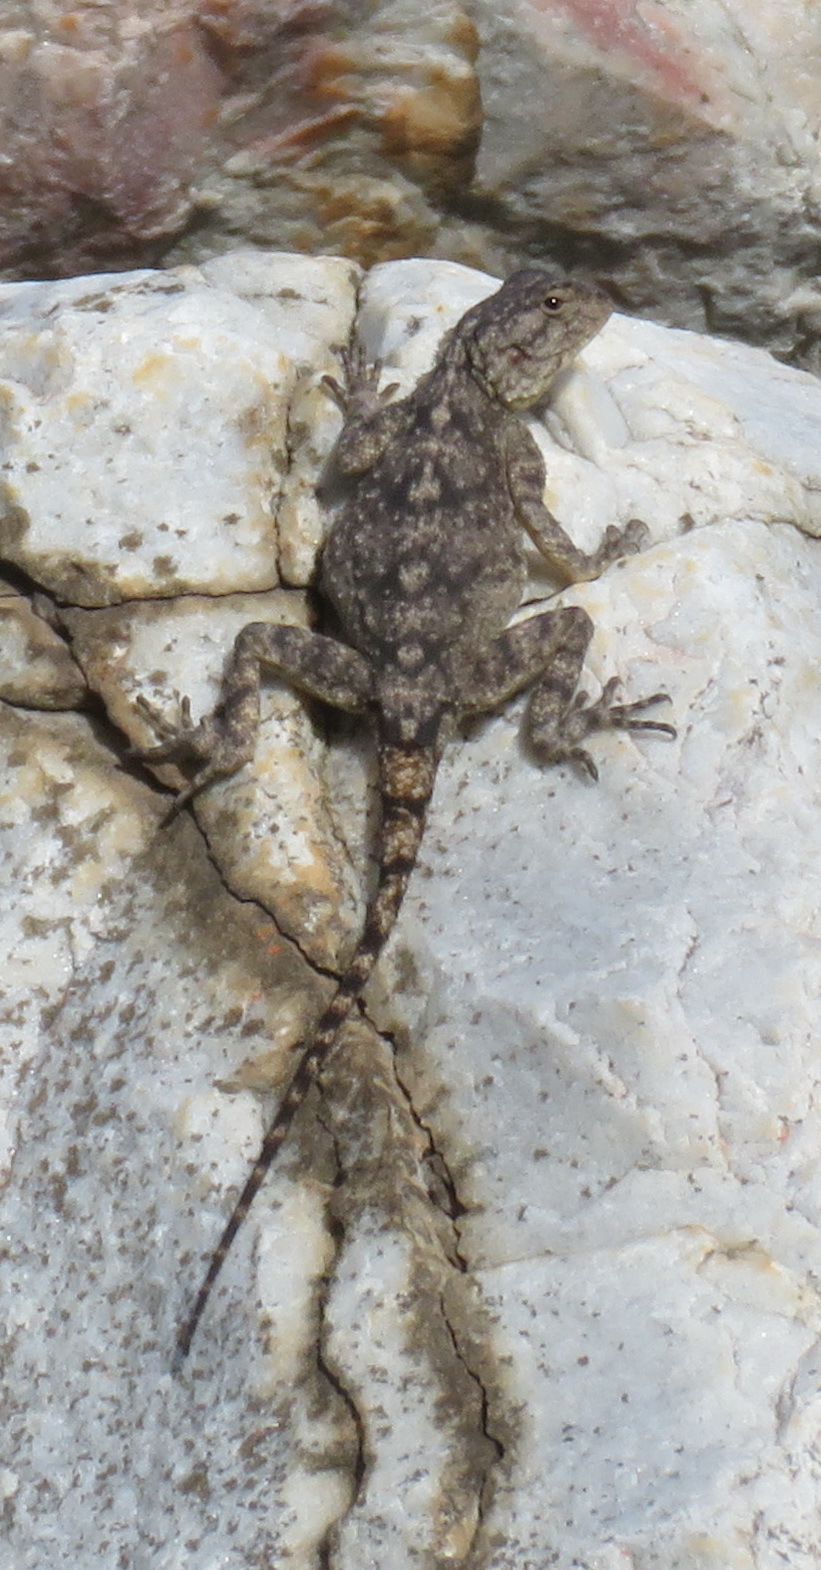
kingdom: Animalia
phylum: Chordata
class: Squamata
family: Agamidae
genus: Agama
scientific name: Agama atra
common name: Southern african rock agama
